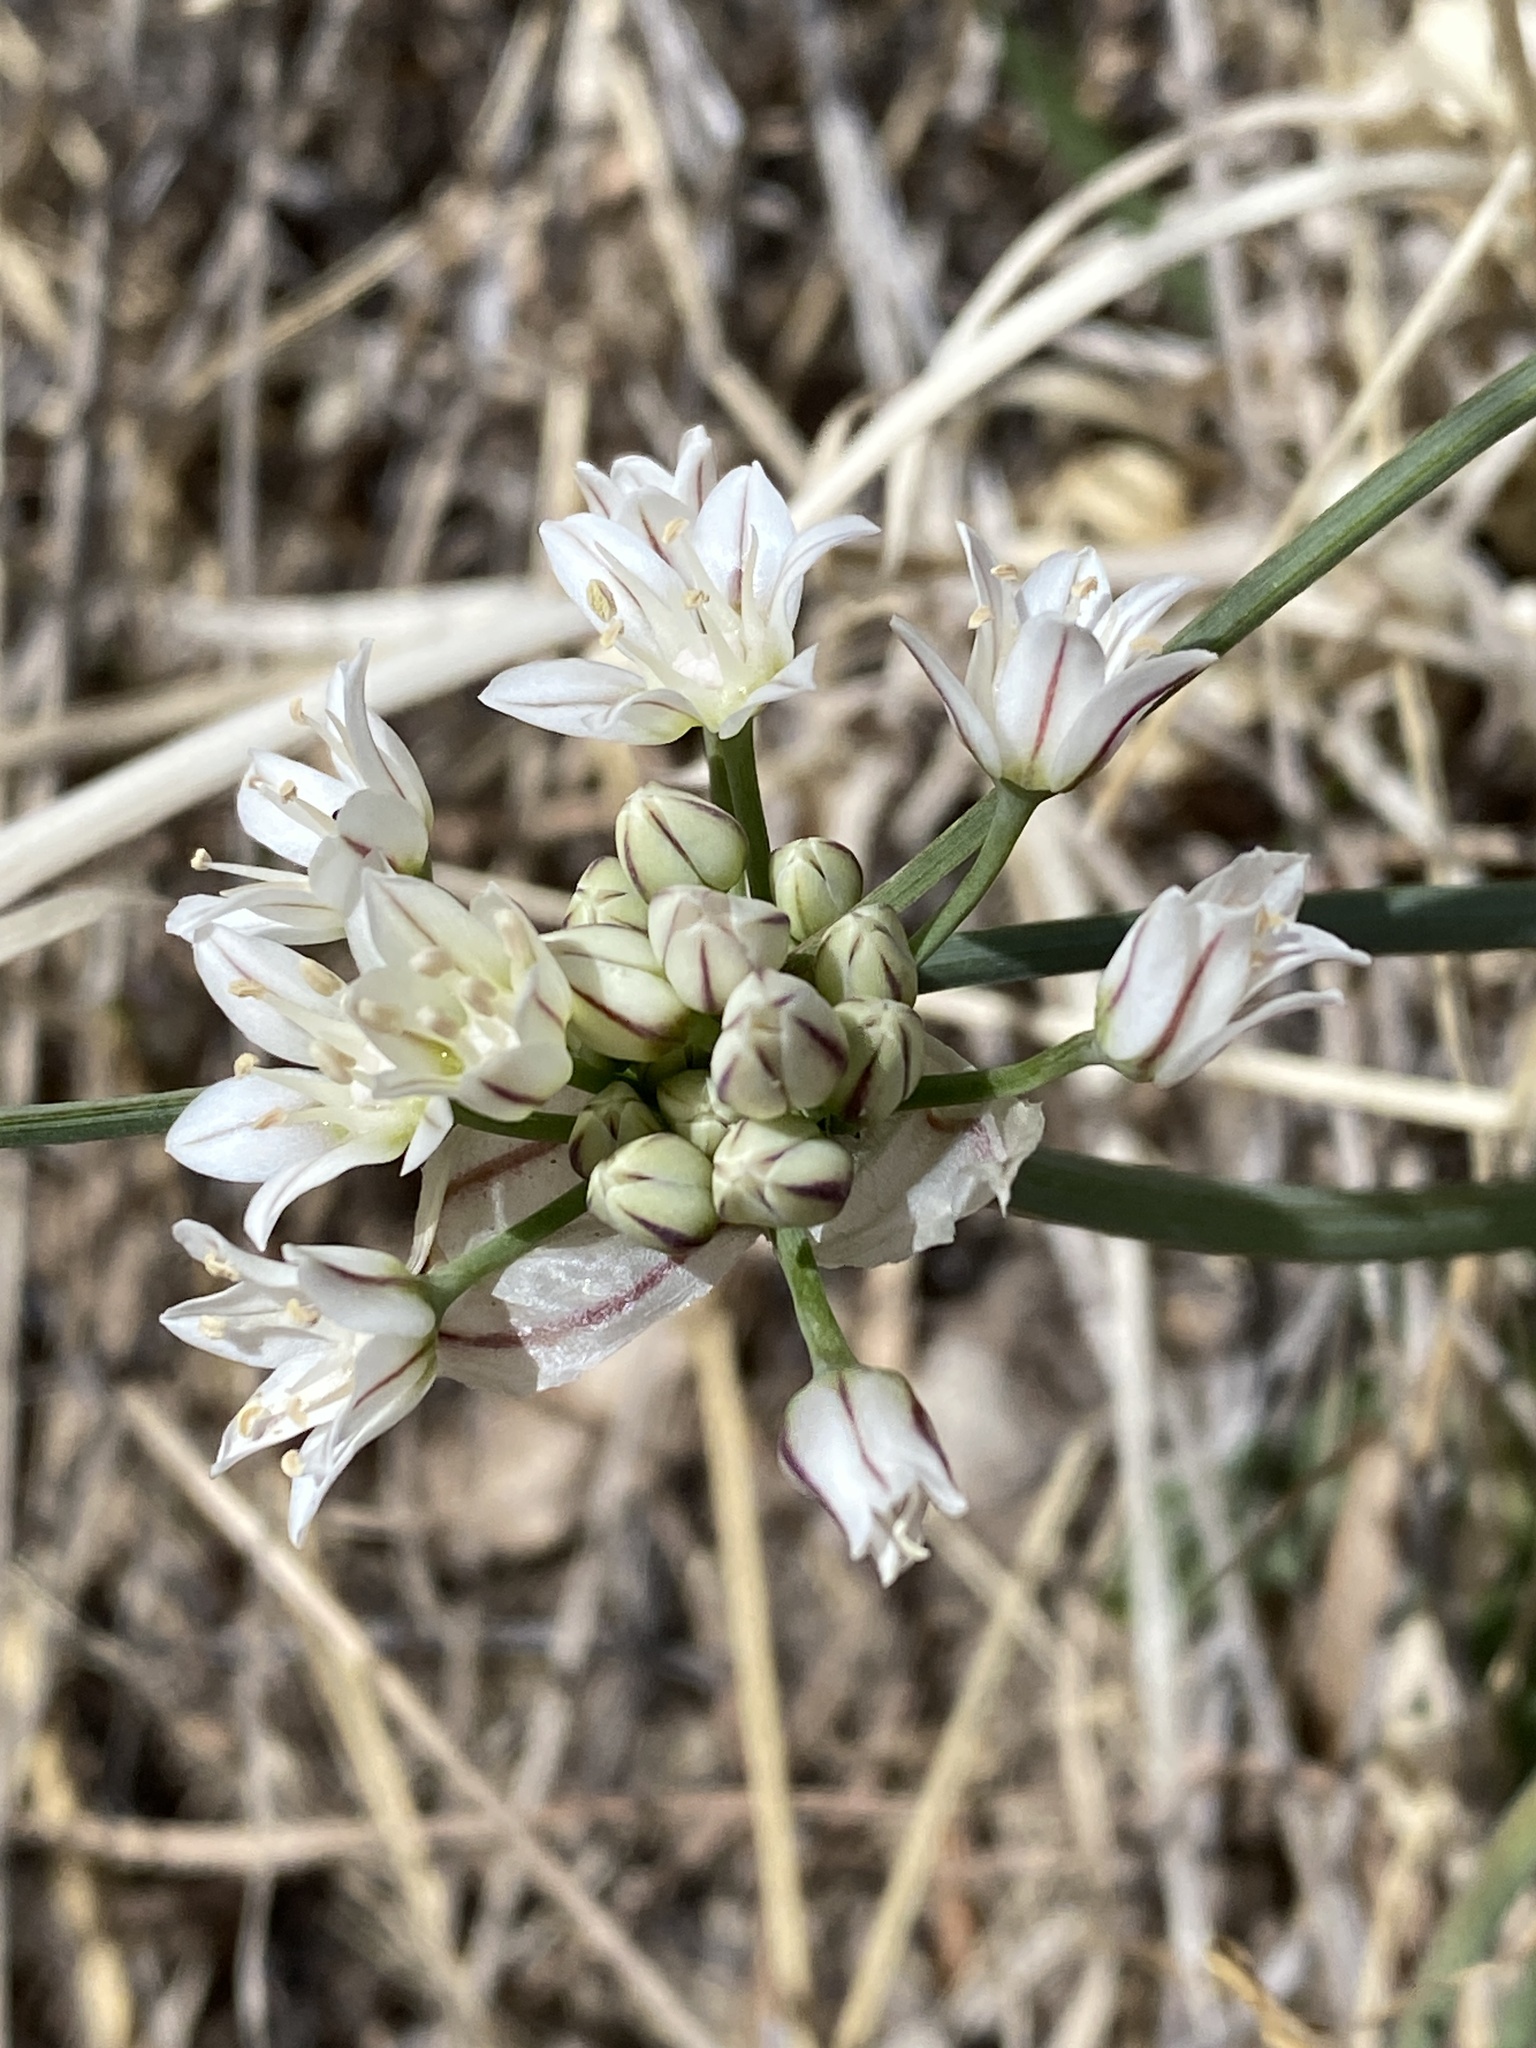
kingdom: Plantae
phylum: Tracheophyta
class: Liliopsida
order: Asparagales
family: Amaryllidaceae
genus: Allium
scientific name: Allium drummondii
